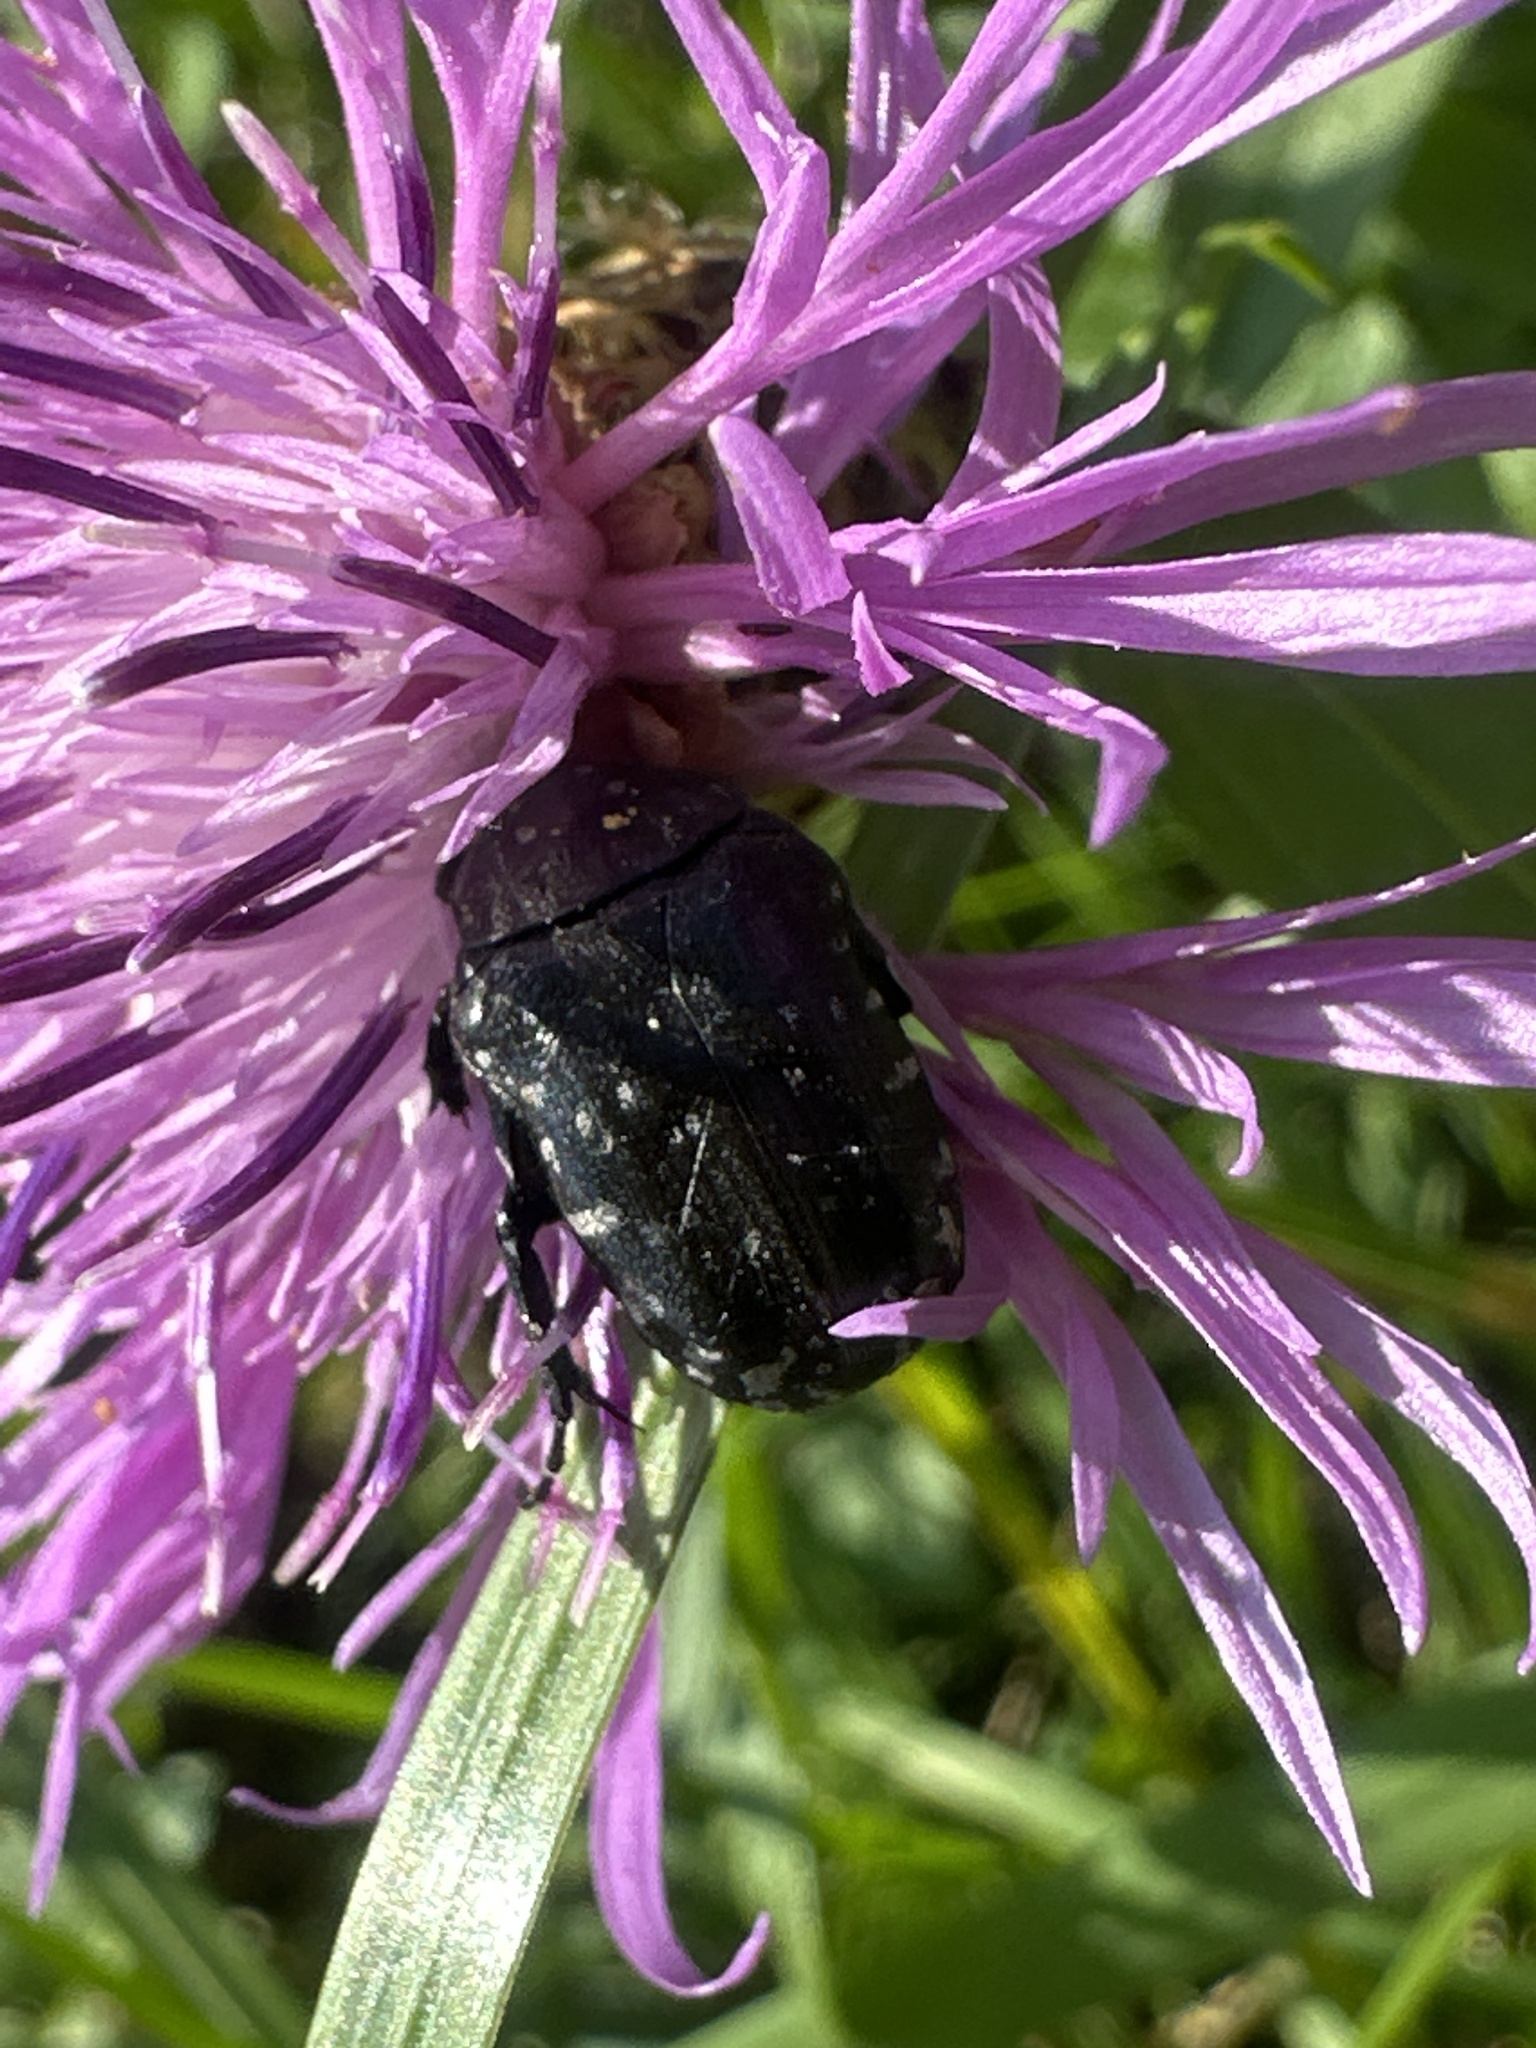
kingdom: Animalia
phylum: Arthropoda
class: Insecta
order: Coleoptera
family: Scarabaeidae
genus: Oxythyrea
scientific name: Oxythyrea funesta
